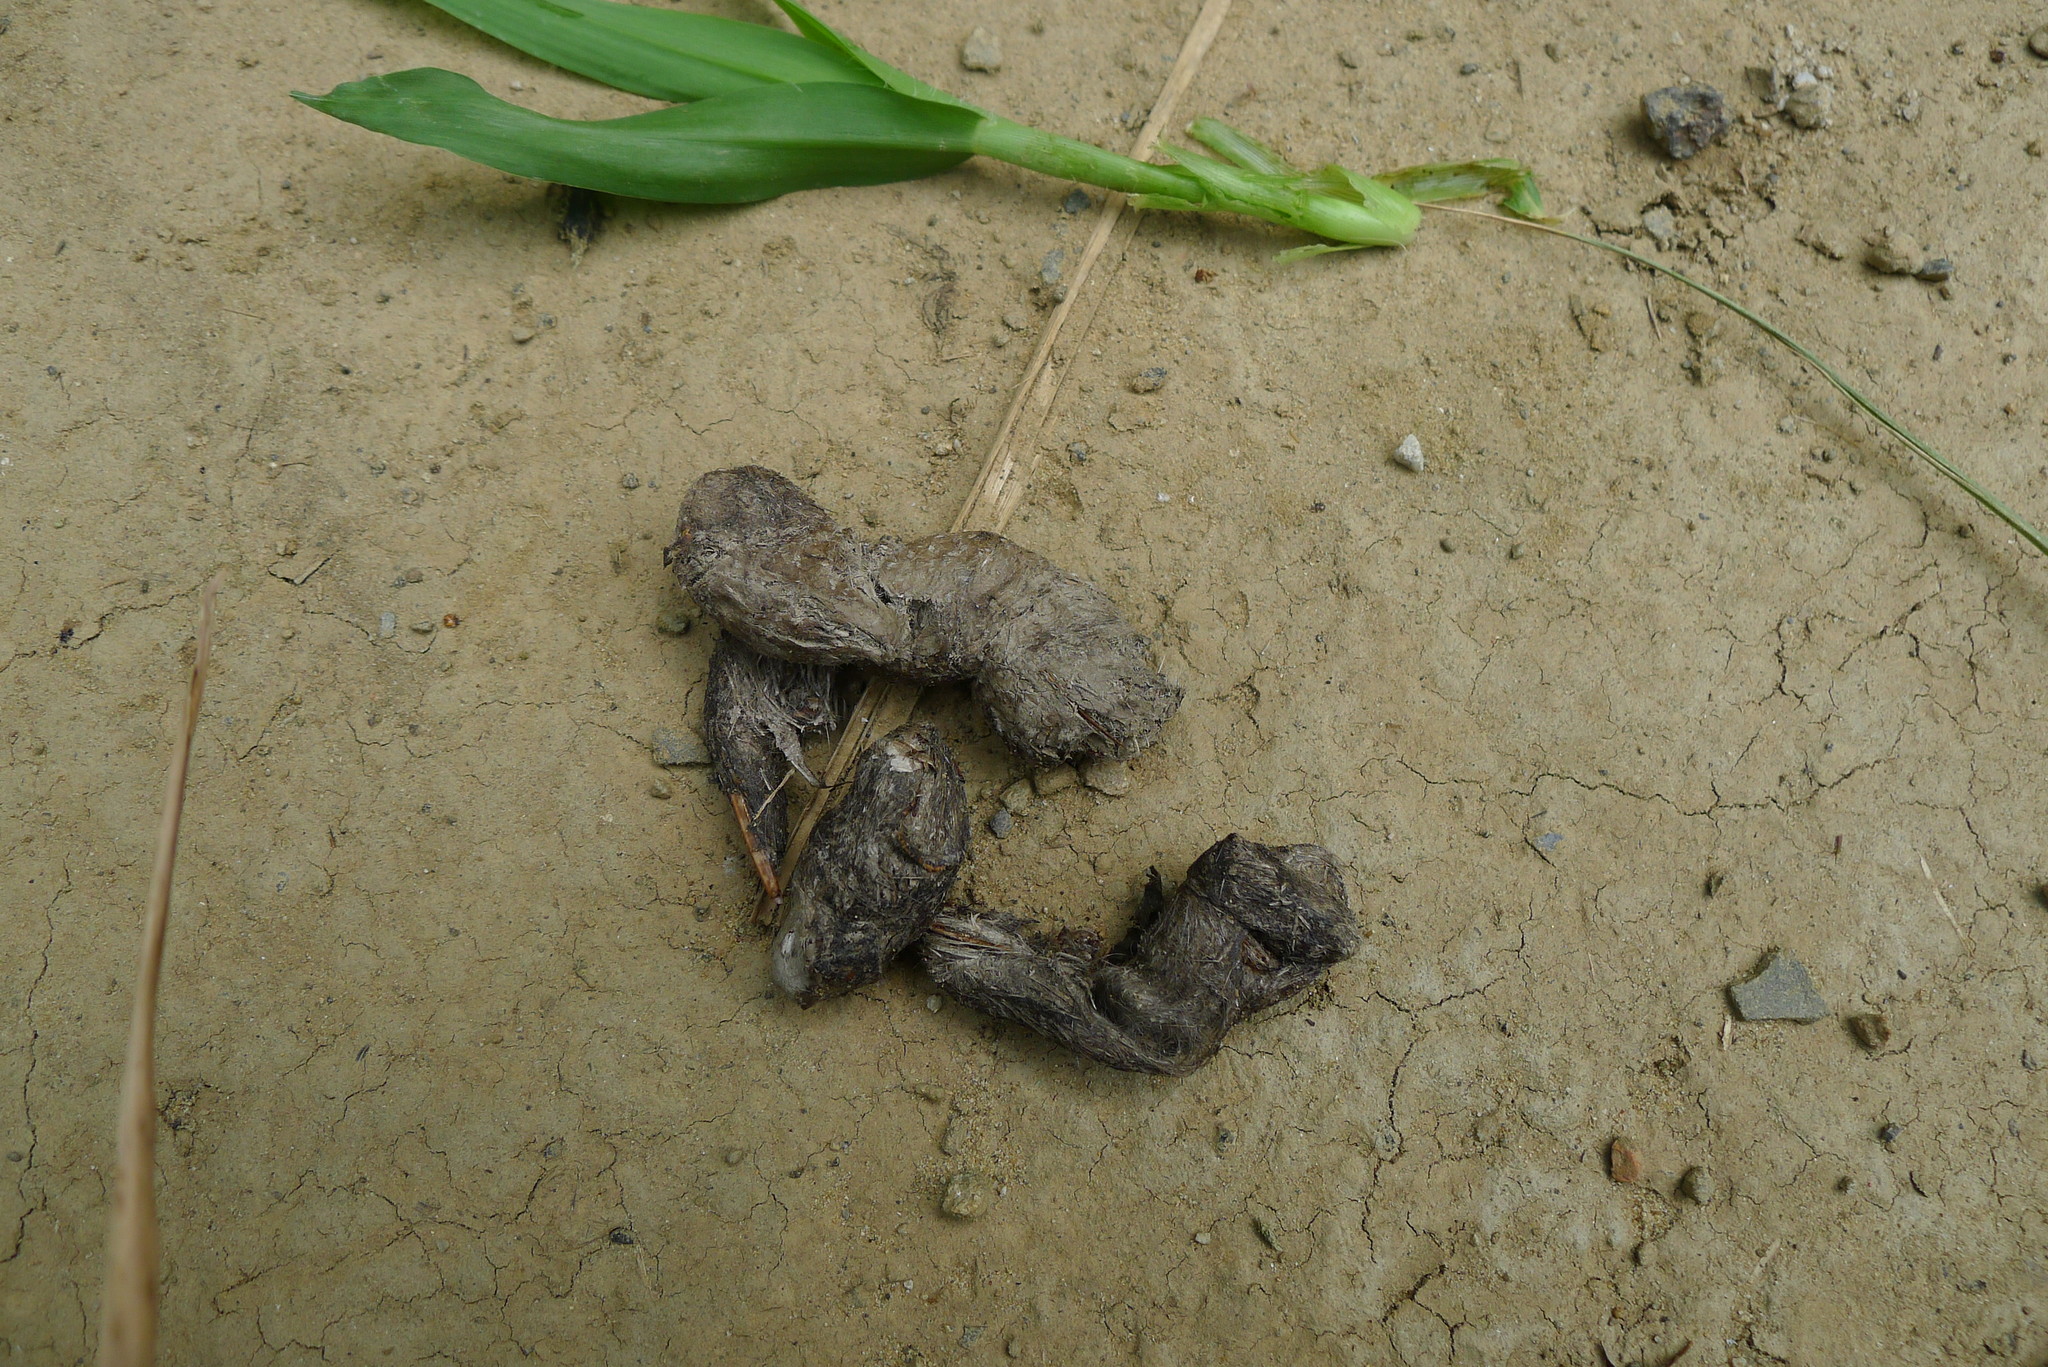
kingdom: Animalia
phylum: Chordata
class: Mammalia
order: Carnivora
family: Felidae
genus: Prionailurus
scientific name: Prionailurus bengalensis
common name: Leopard cat
